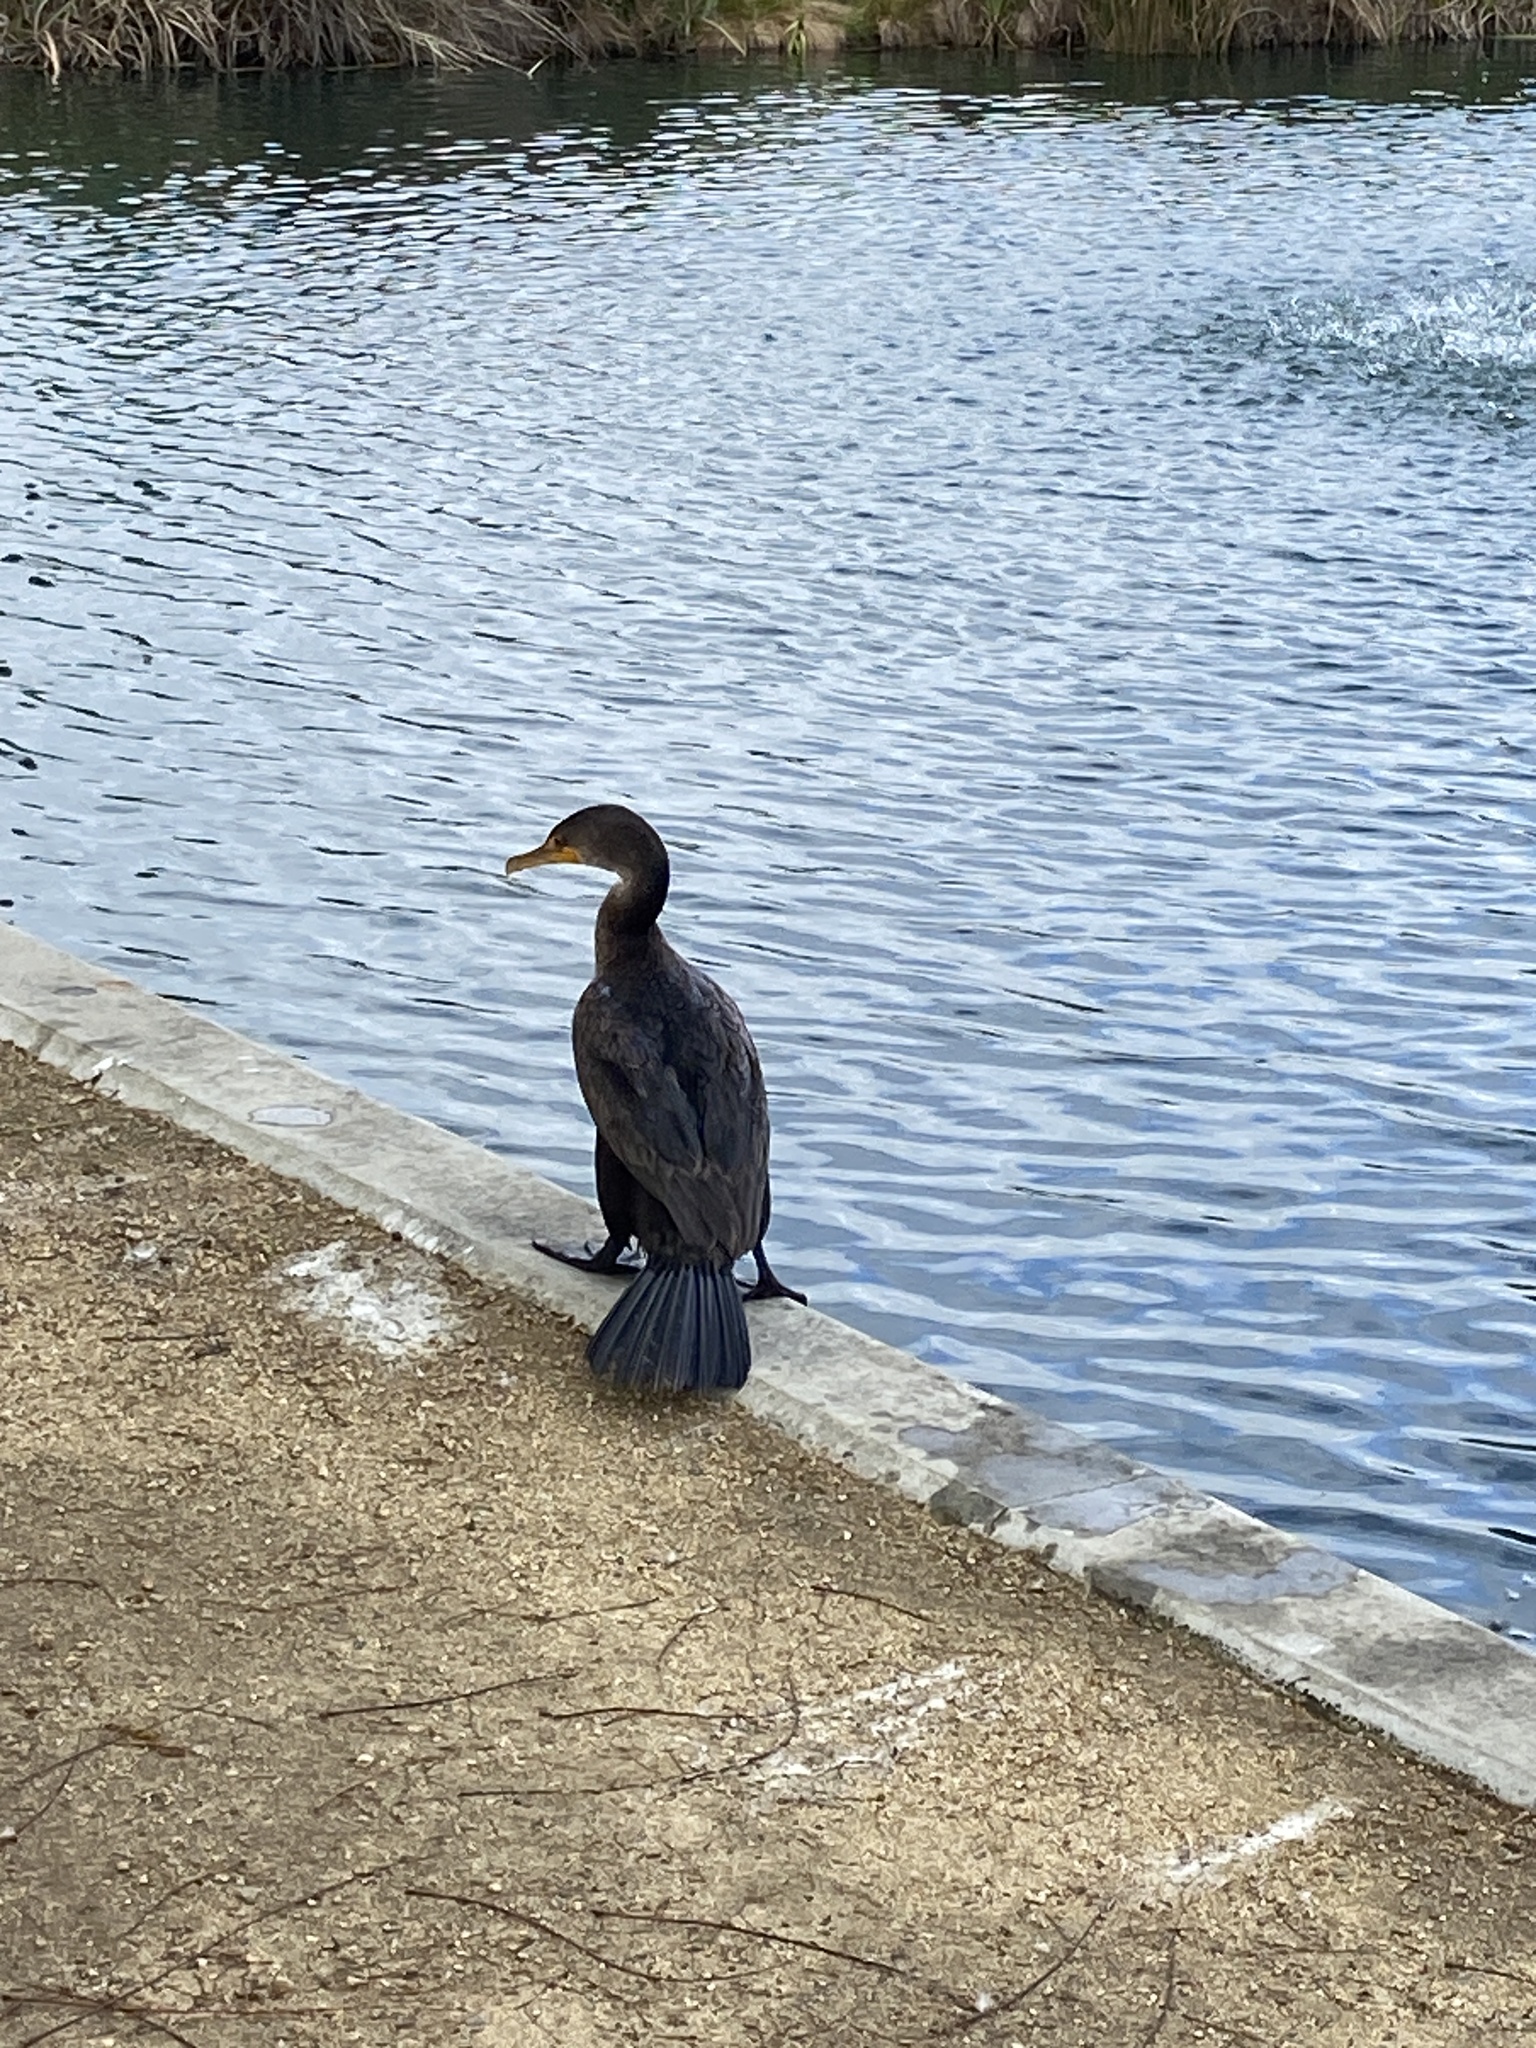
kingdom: Animalia
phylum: Chordata
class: Aves
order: Suliformes
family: Phalacrocoracidae
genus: Phalacrocorax
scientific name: Phalacrocorax auritus
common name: Double-crested cormorant
